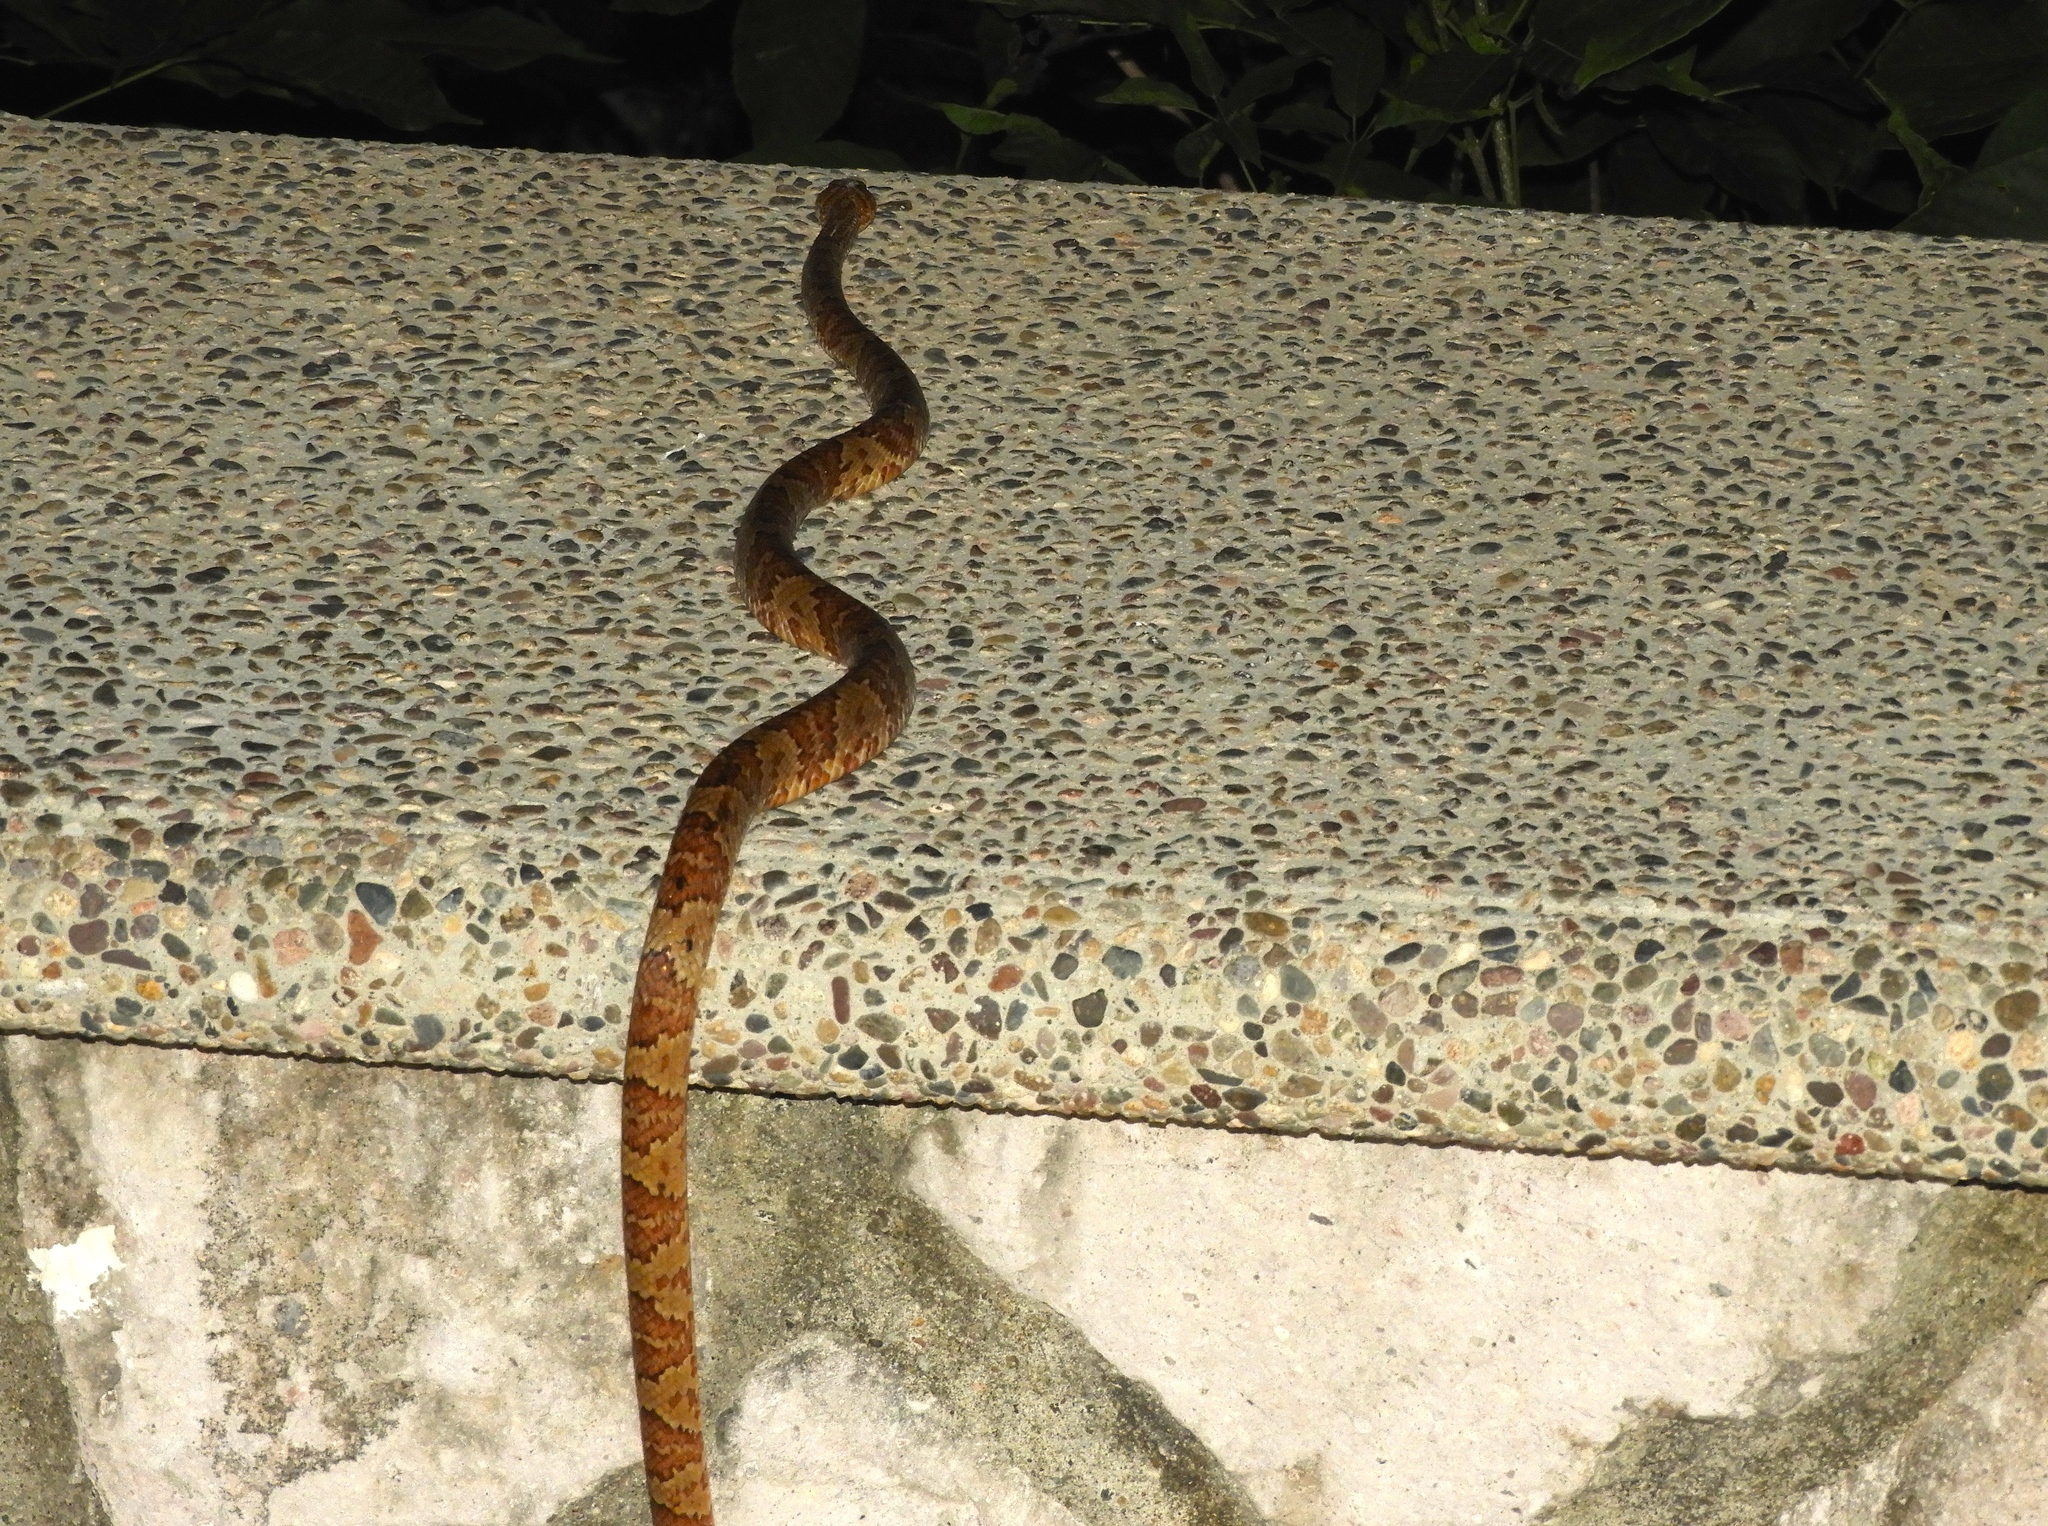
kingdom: Animalia
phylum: Chordata
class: Squamata
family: Colubridae
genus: Trimorphodon
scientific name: Trimorphodon paucimaculatus
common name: Sinaloan lyresnake
